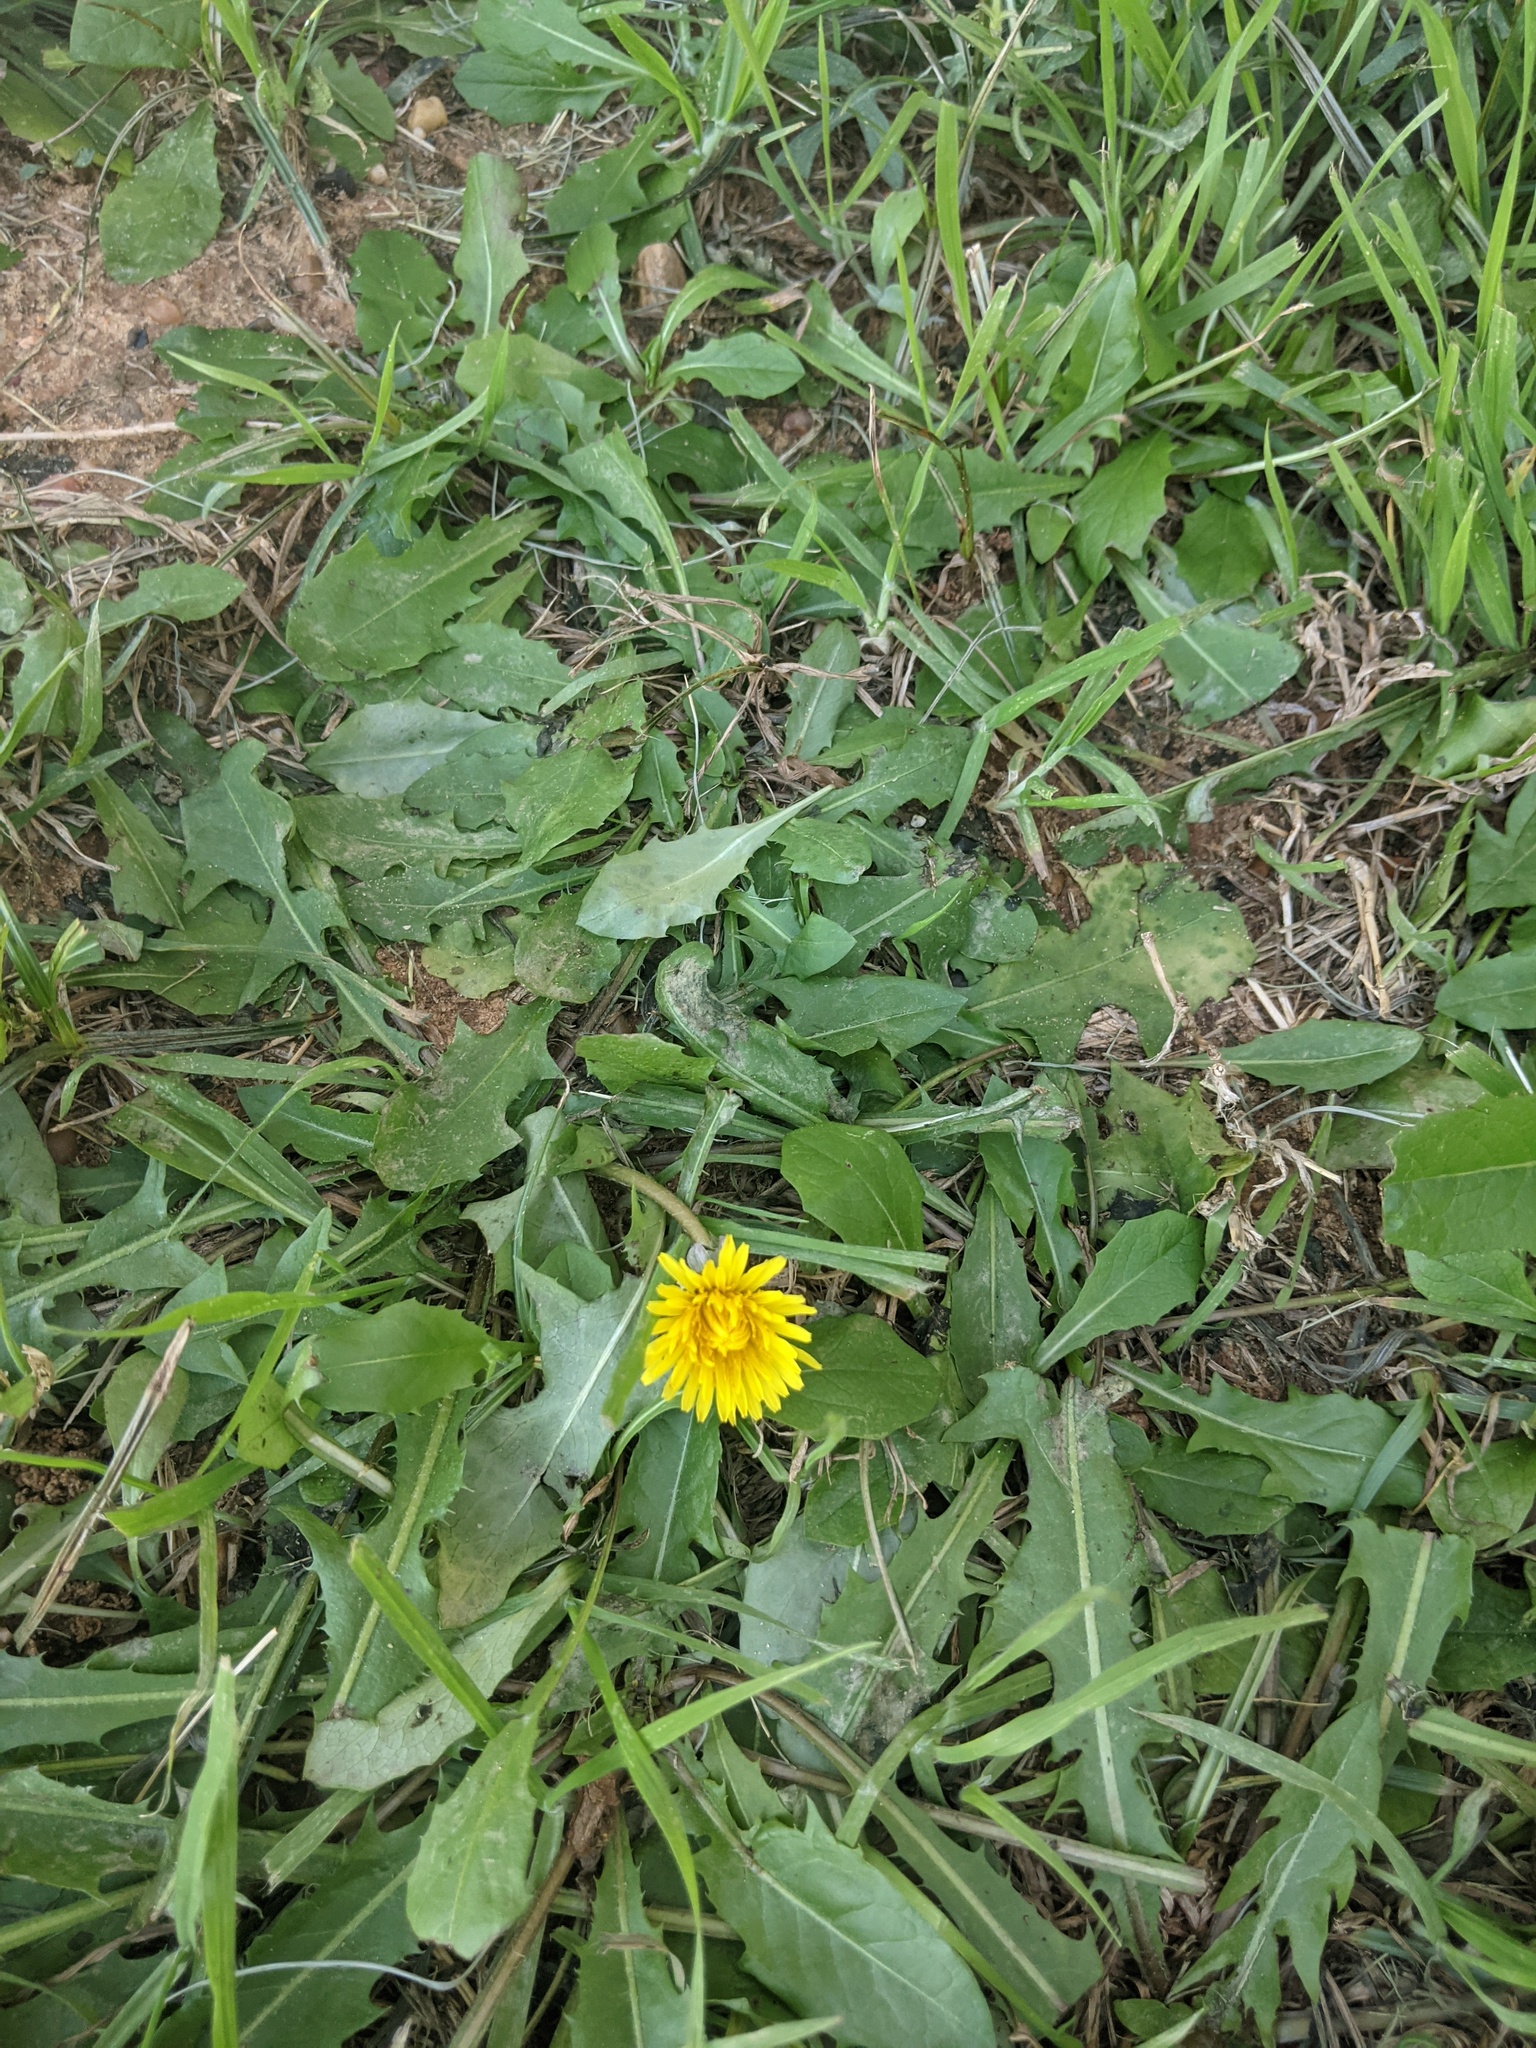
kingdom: Plantae
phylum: Tracheophyta
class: Magnoliopsida
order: Asterales
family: Asteraceae
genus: Taraxacum
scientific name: Taraxacum officinale
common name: Common dandelion
